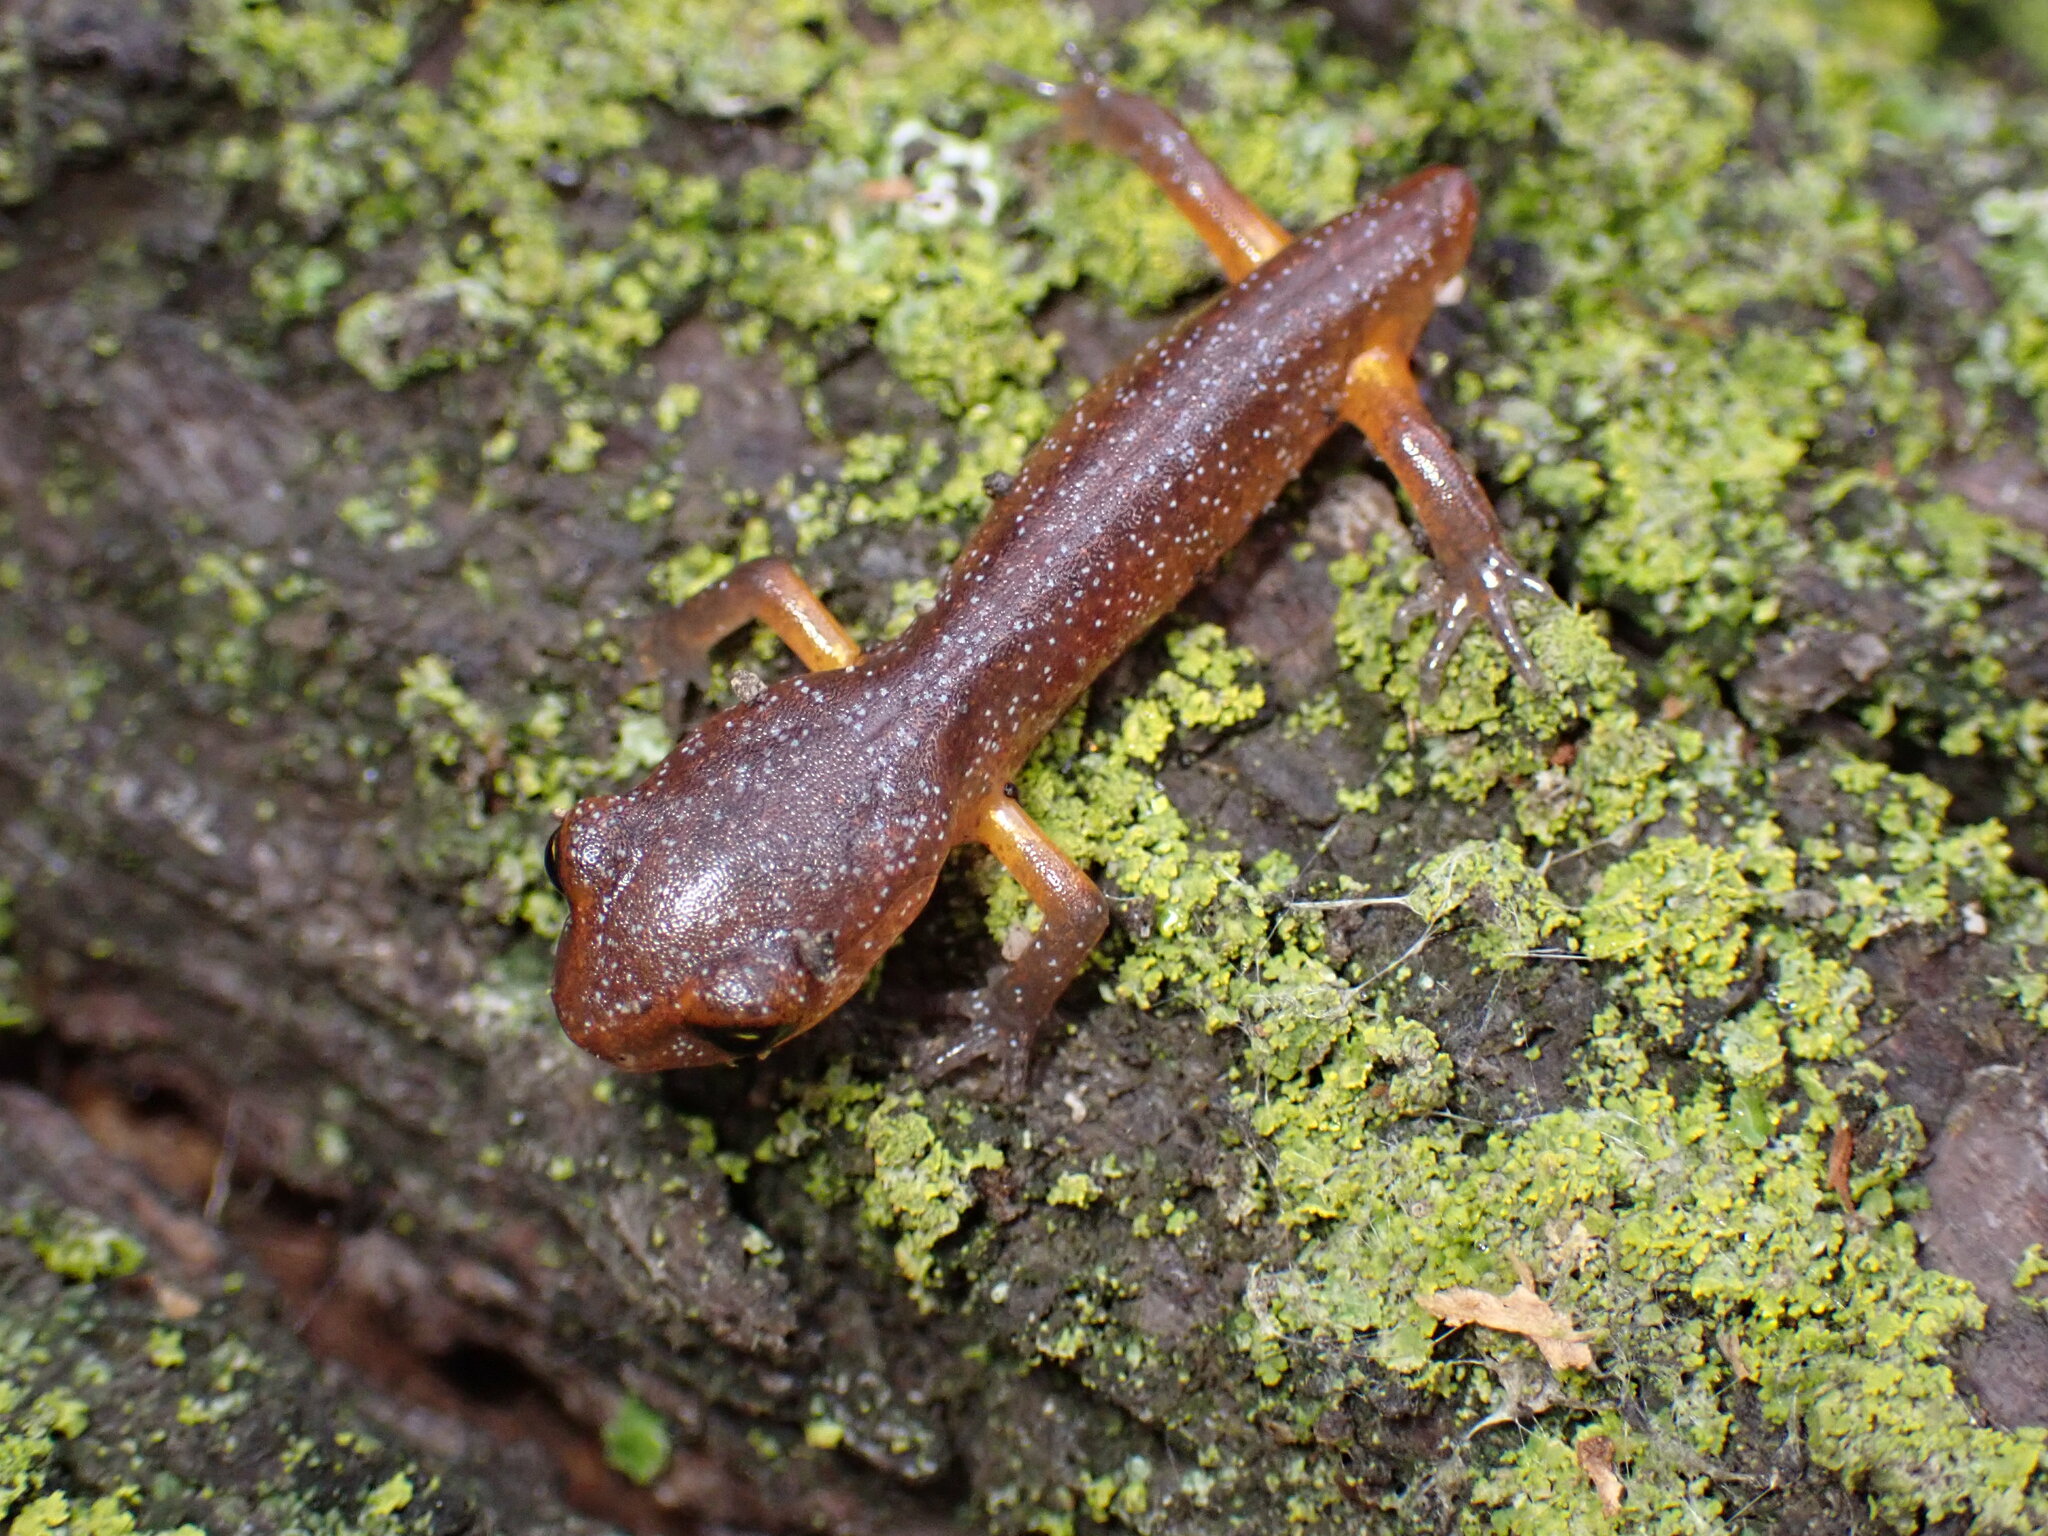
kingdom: Animalia
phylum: Chordata
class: Amphibia
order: Caudata
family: Plethodontidae
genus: Ensatina
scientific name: Ensatina eschscholtzii
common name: Ensatina
